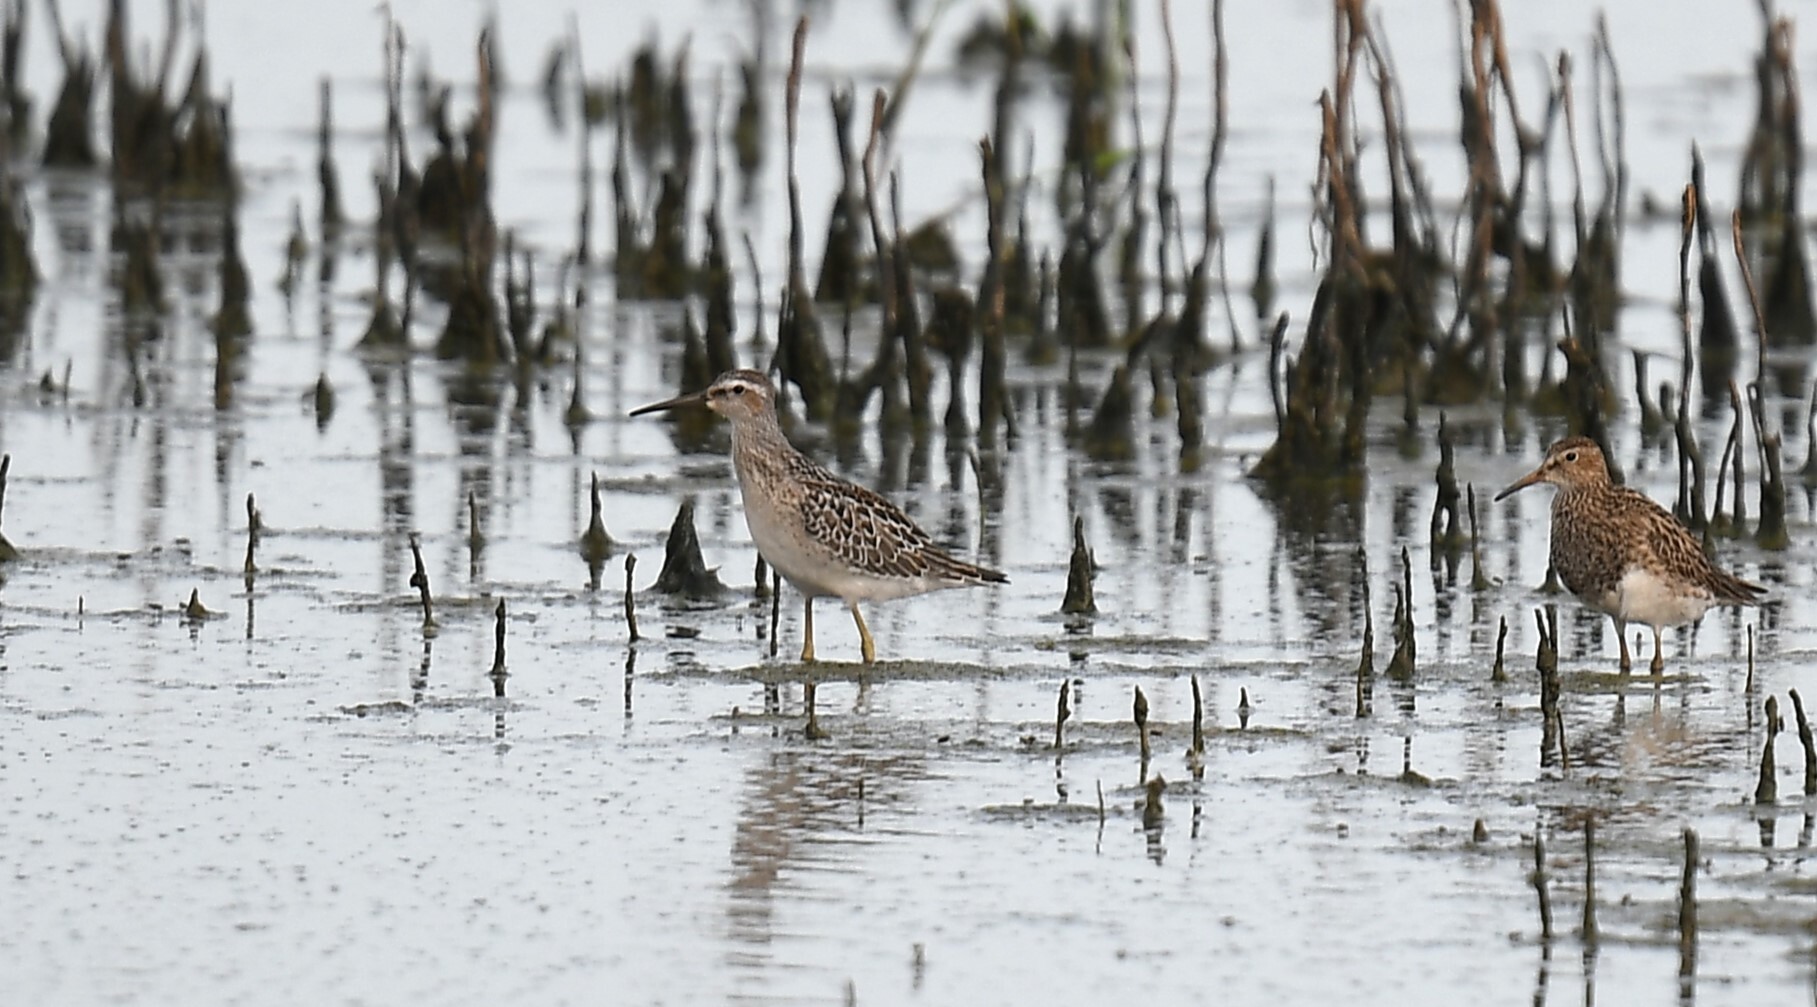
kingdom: Animalia
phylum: Chordata
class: Aves
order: Charadriiformes
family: Scolopacidae
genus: Calidris
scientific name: Calidris himantopus
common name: Stilt sandpiper
